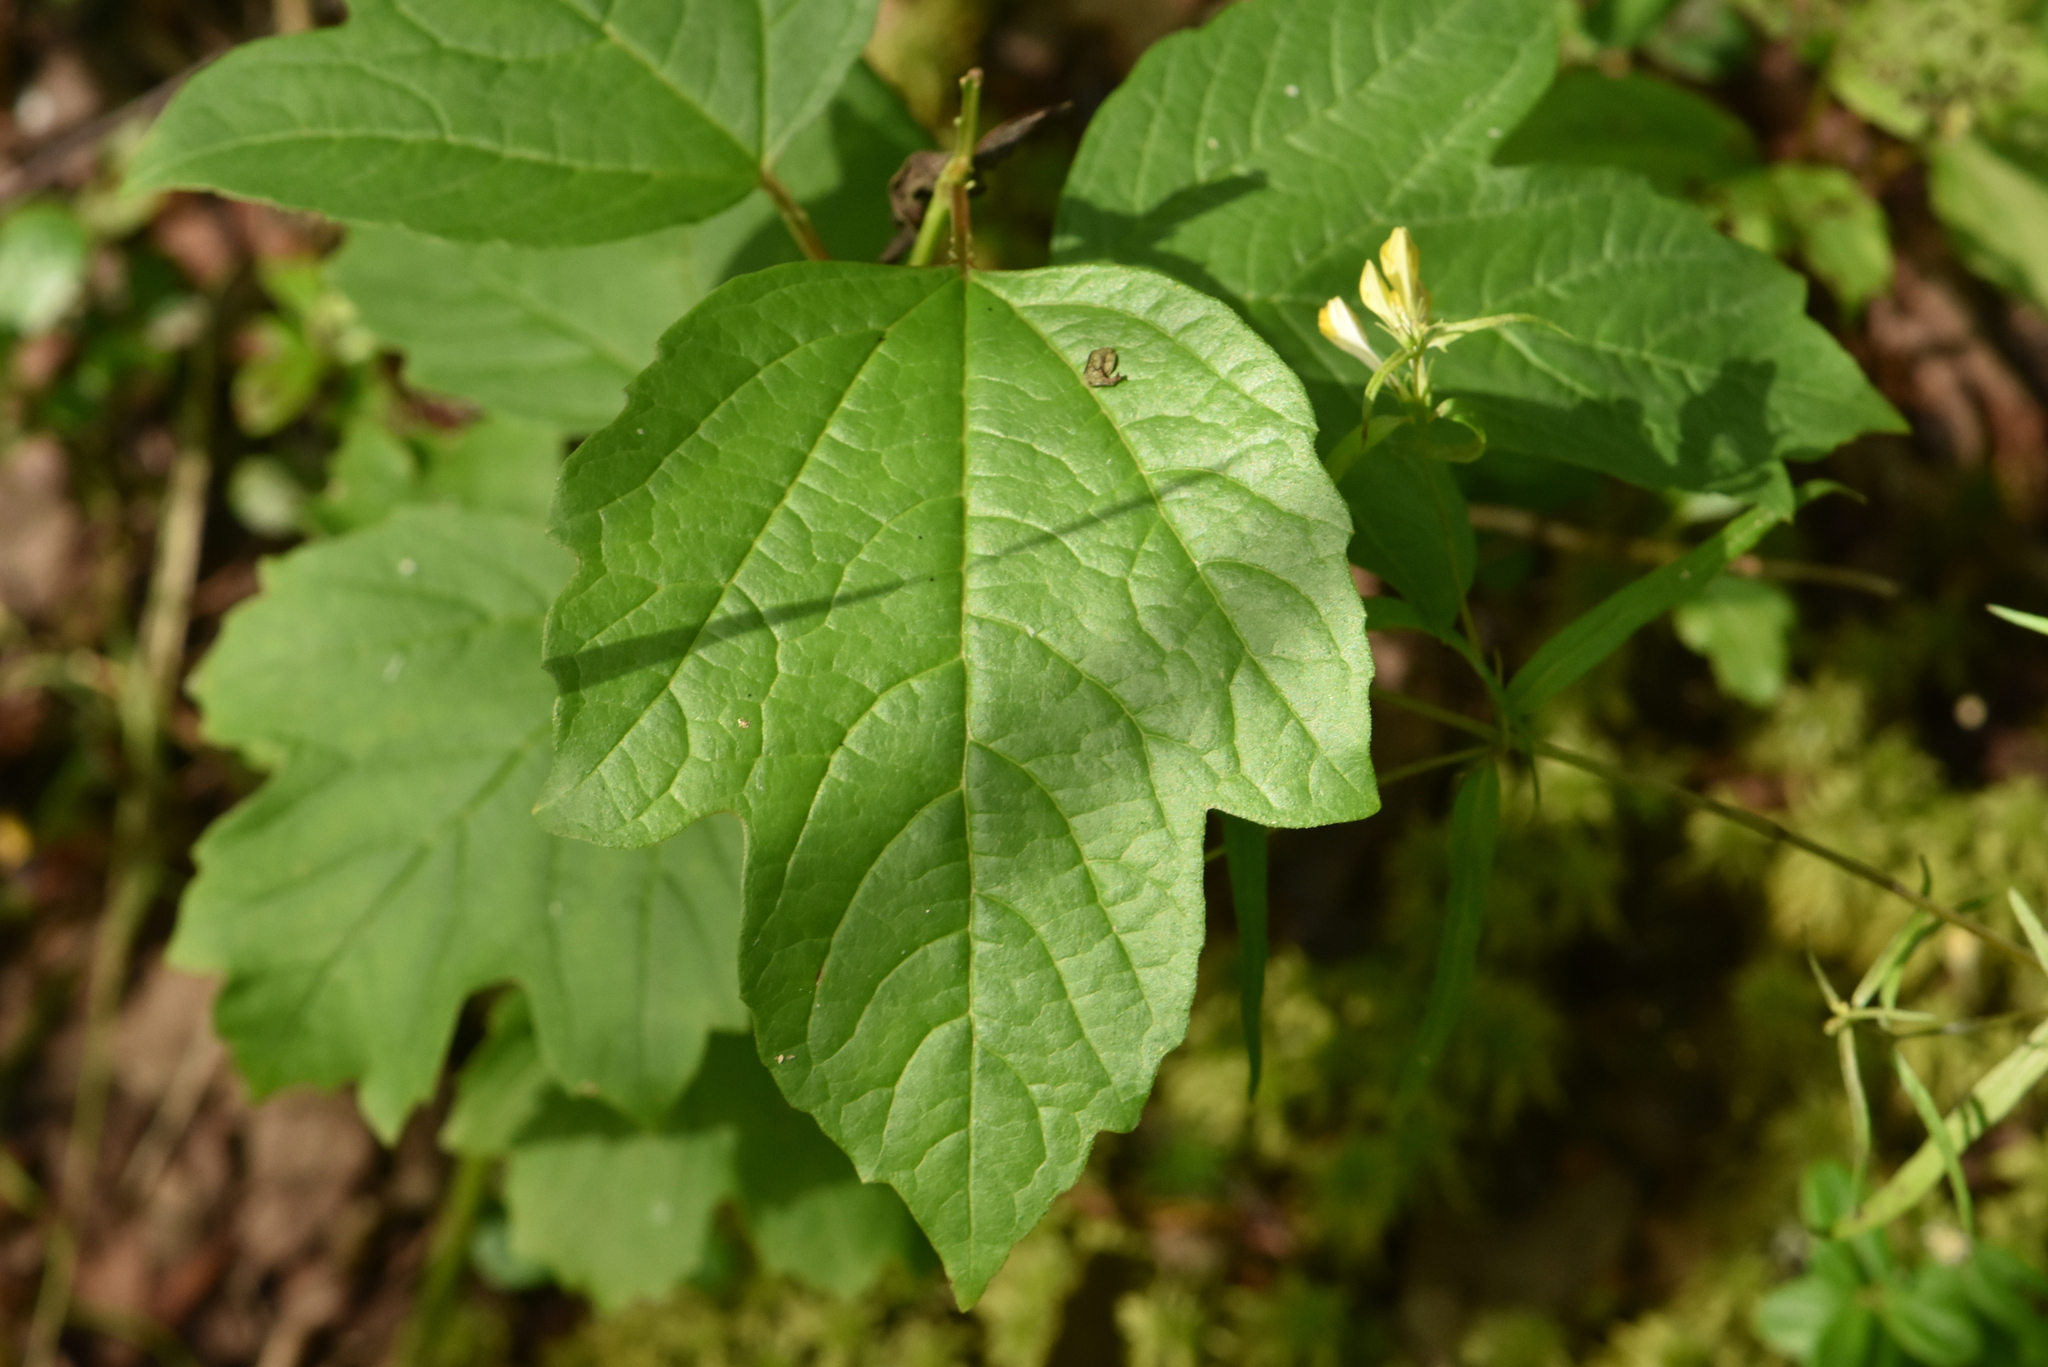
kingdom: Plantae
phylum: Tracheophyta
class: Magnoliopsida
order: Dipsacales
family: Viburnaceae
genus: Viburnum
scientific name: Viburnum opulus
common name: Guelder-rose
